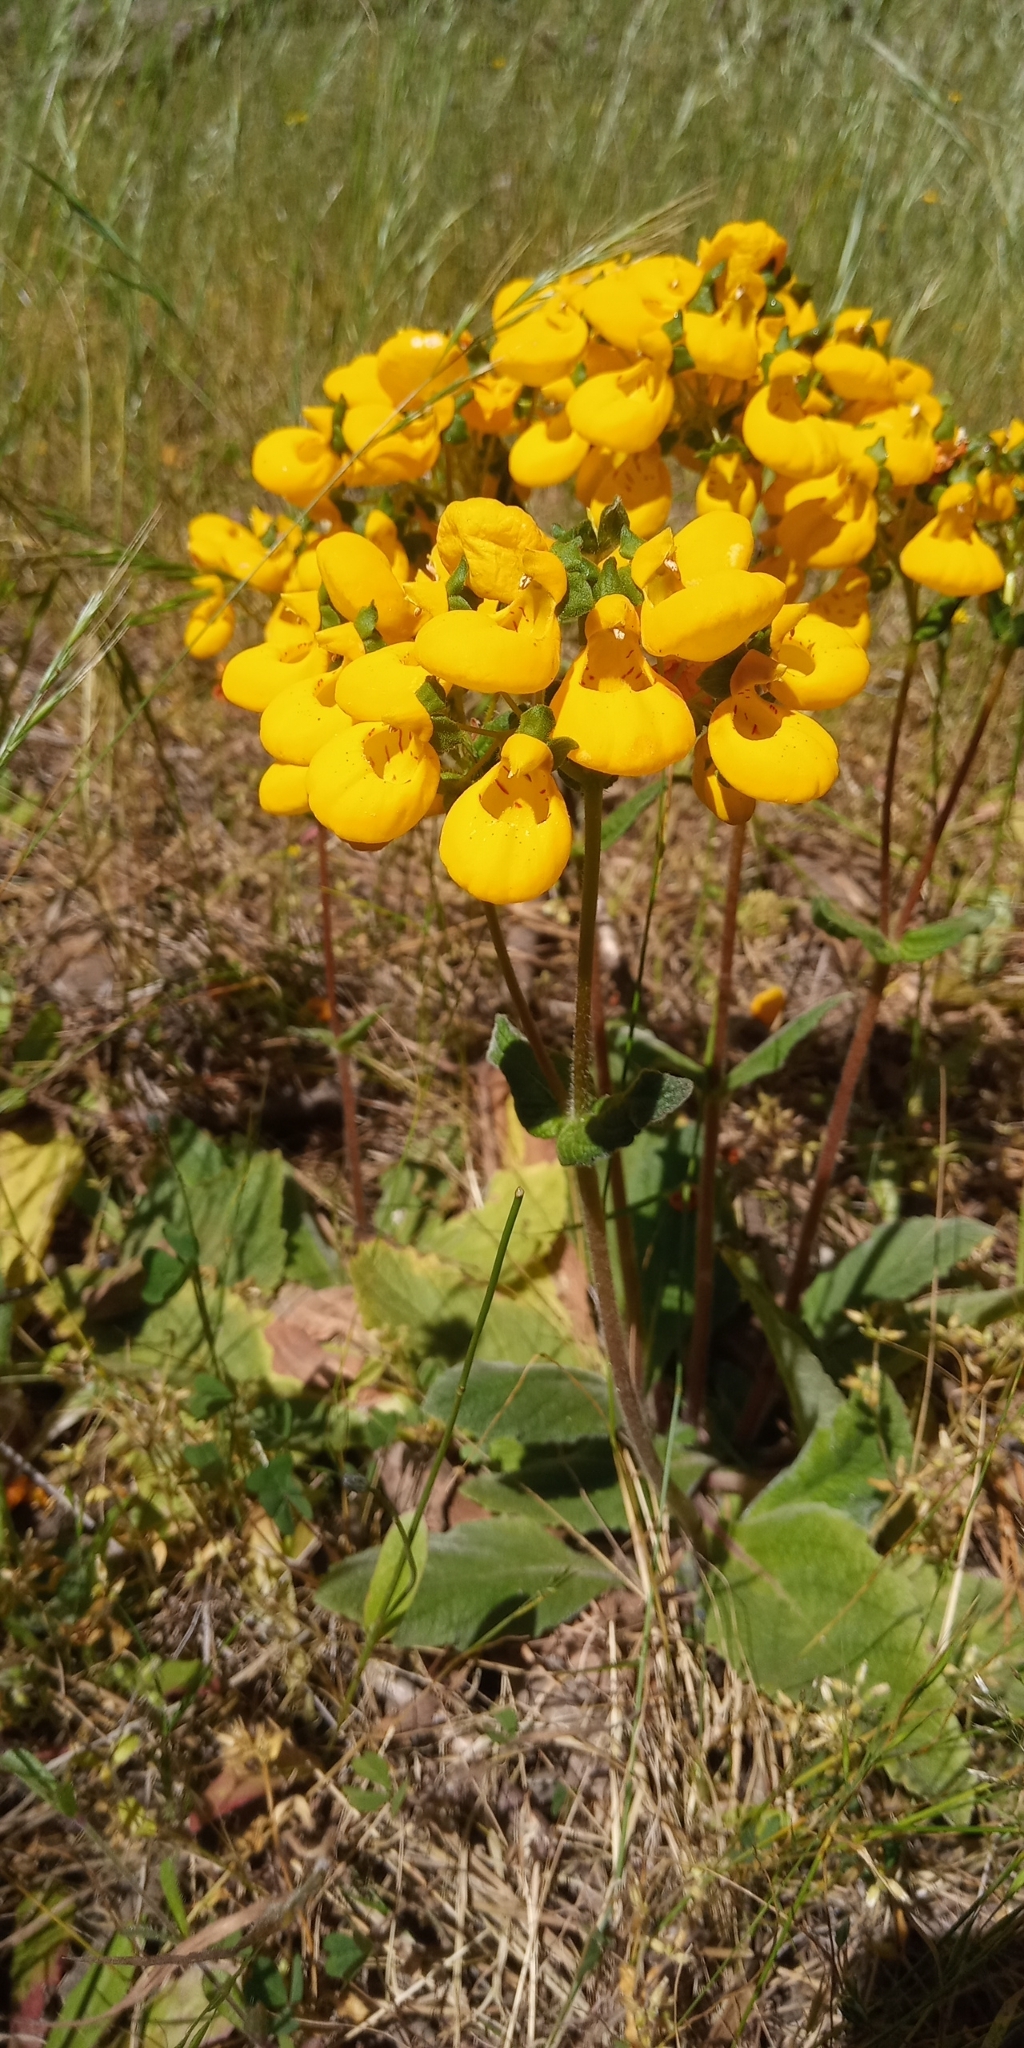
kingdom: Plantae
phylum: Tracheophyta
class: Magnoliopsida
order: Lamiales
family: Calceolariaceae
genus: Calceolaria
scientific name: Calceolaria corymbosa
